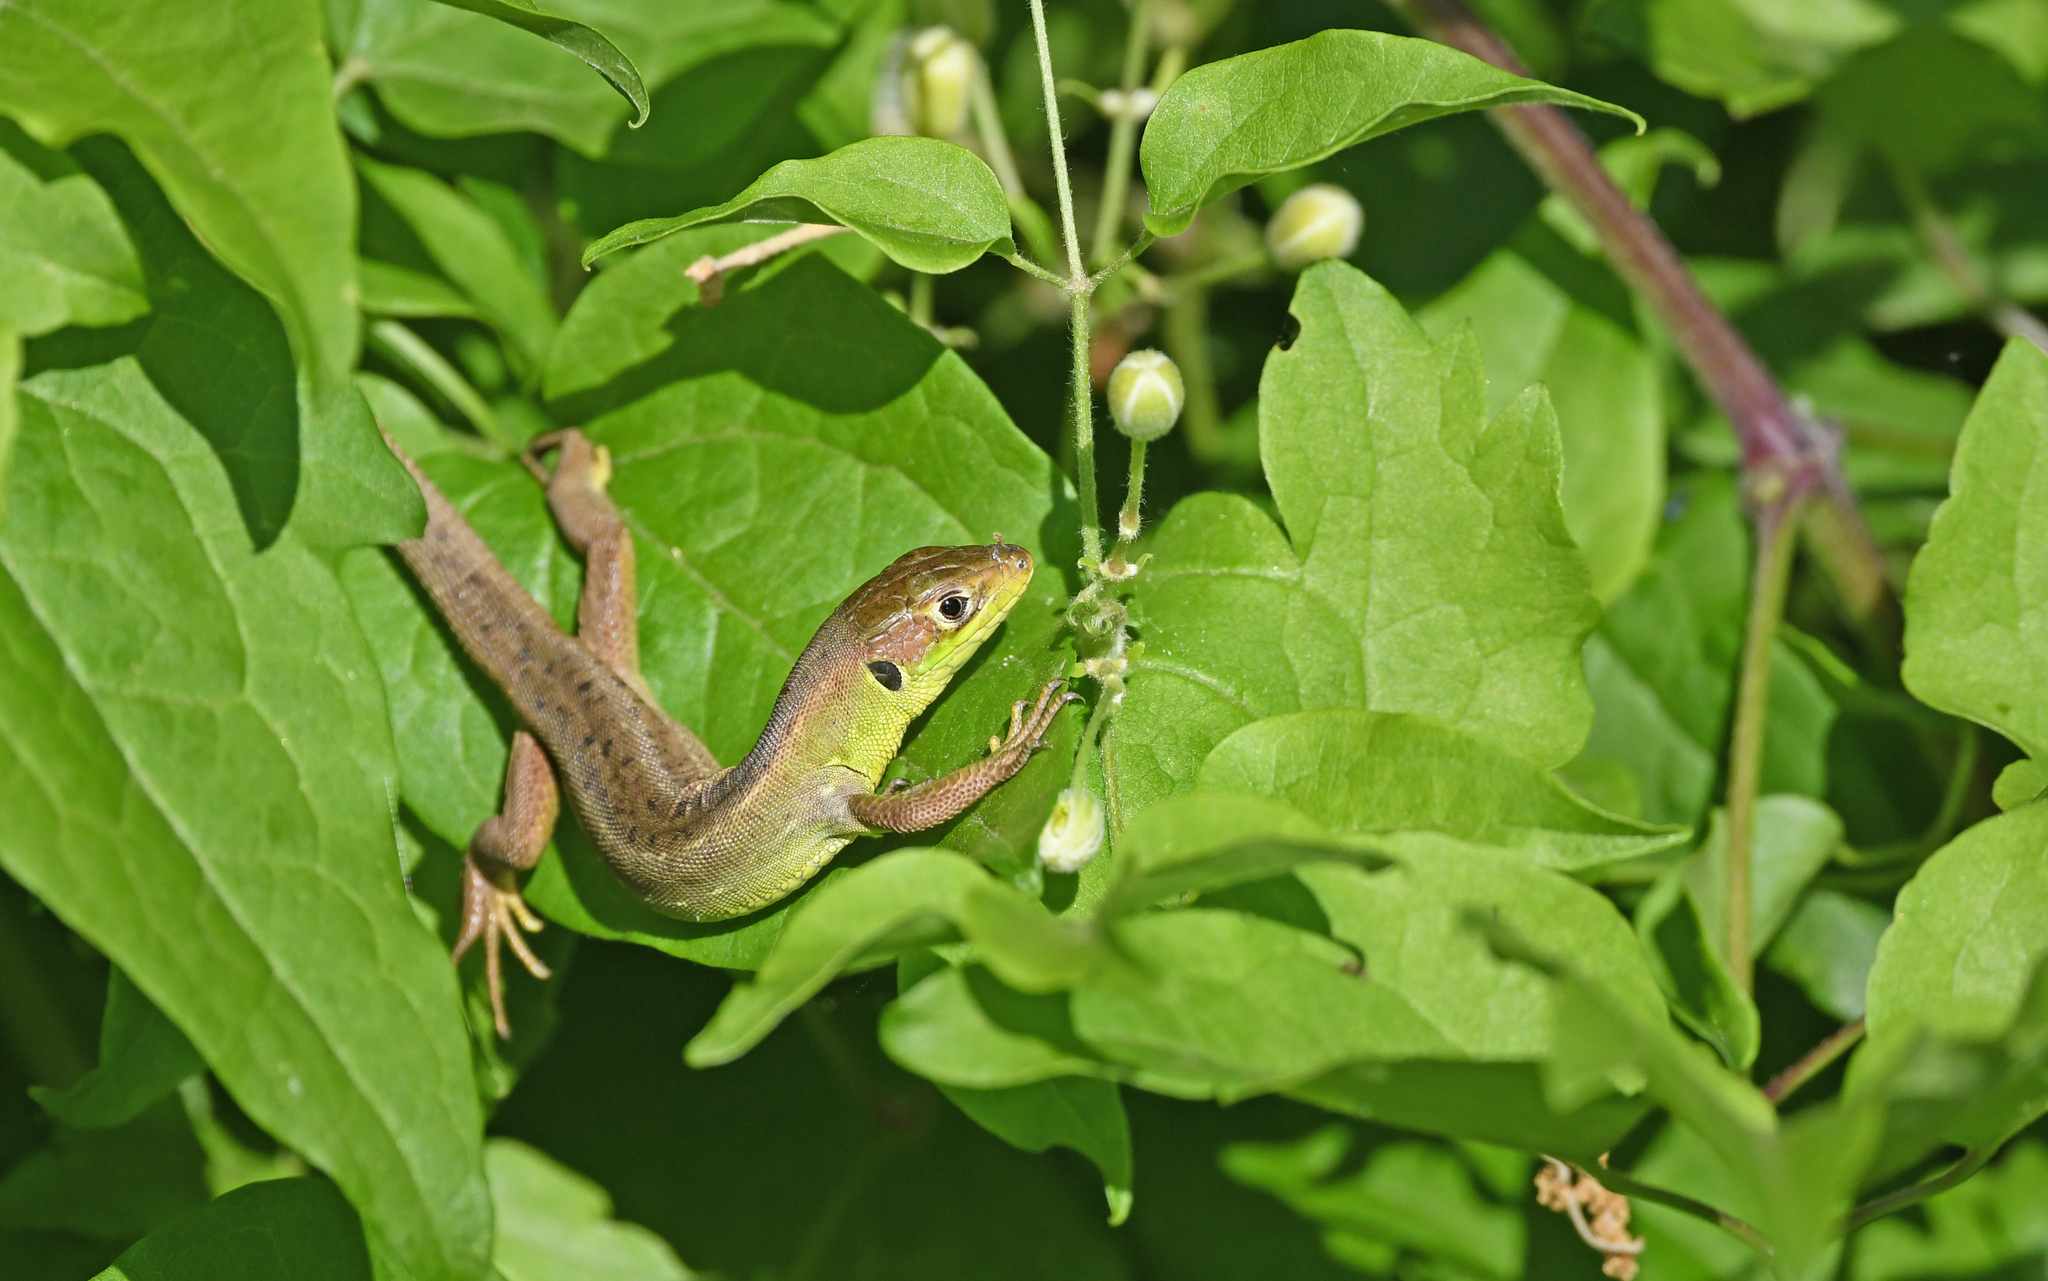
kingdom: Animalia
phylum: Chordata
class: Squamata
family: Lacertidae
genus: Lacerta
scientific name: Lacerta bilineata
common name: Western green lizard
